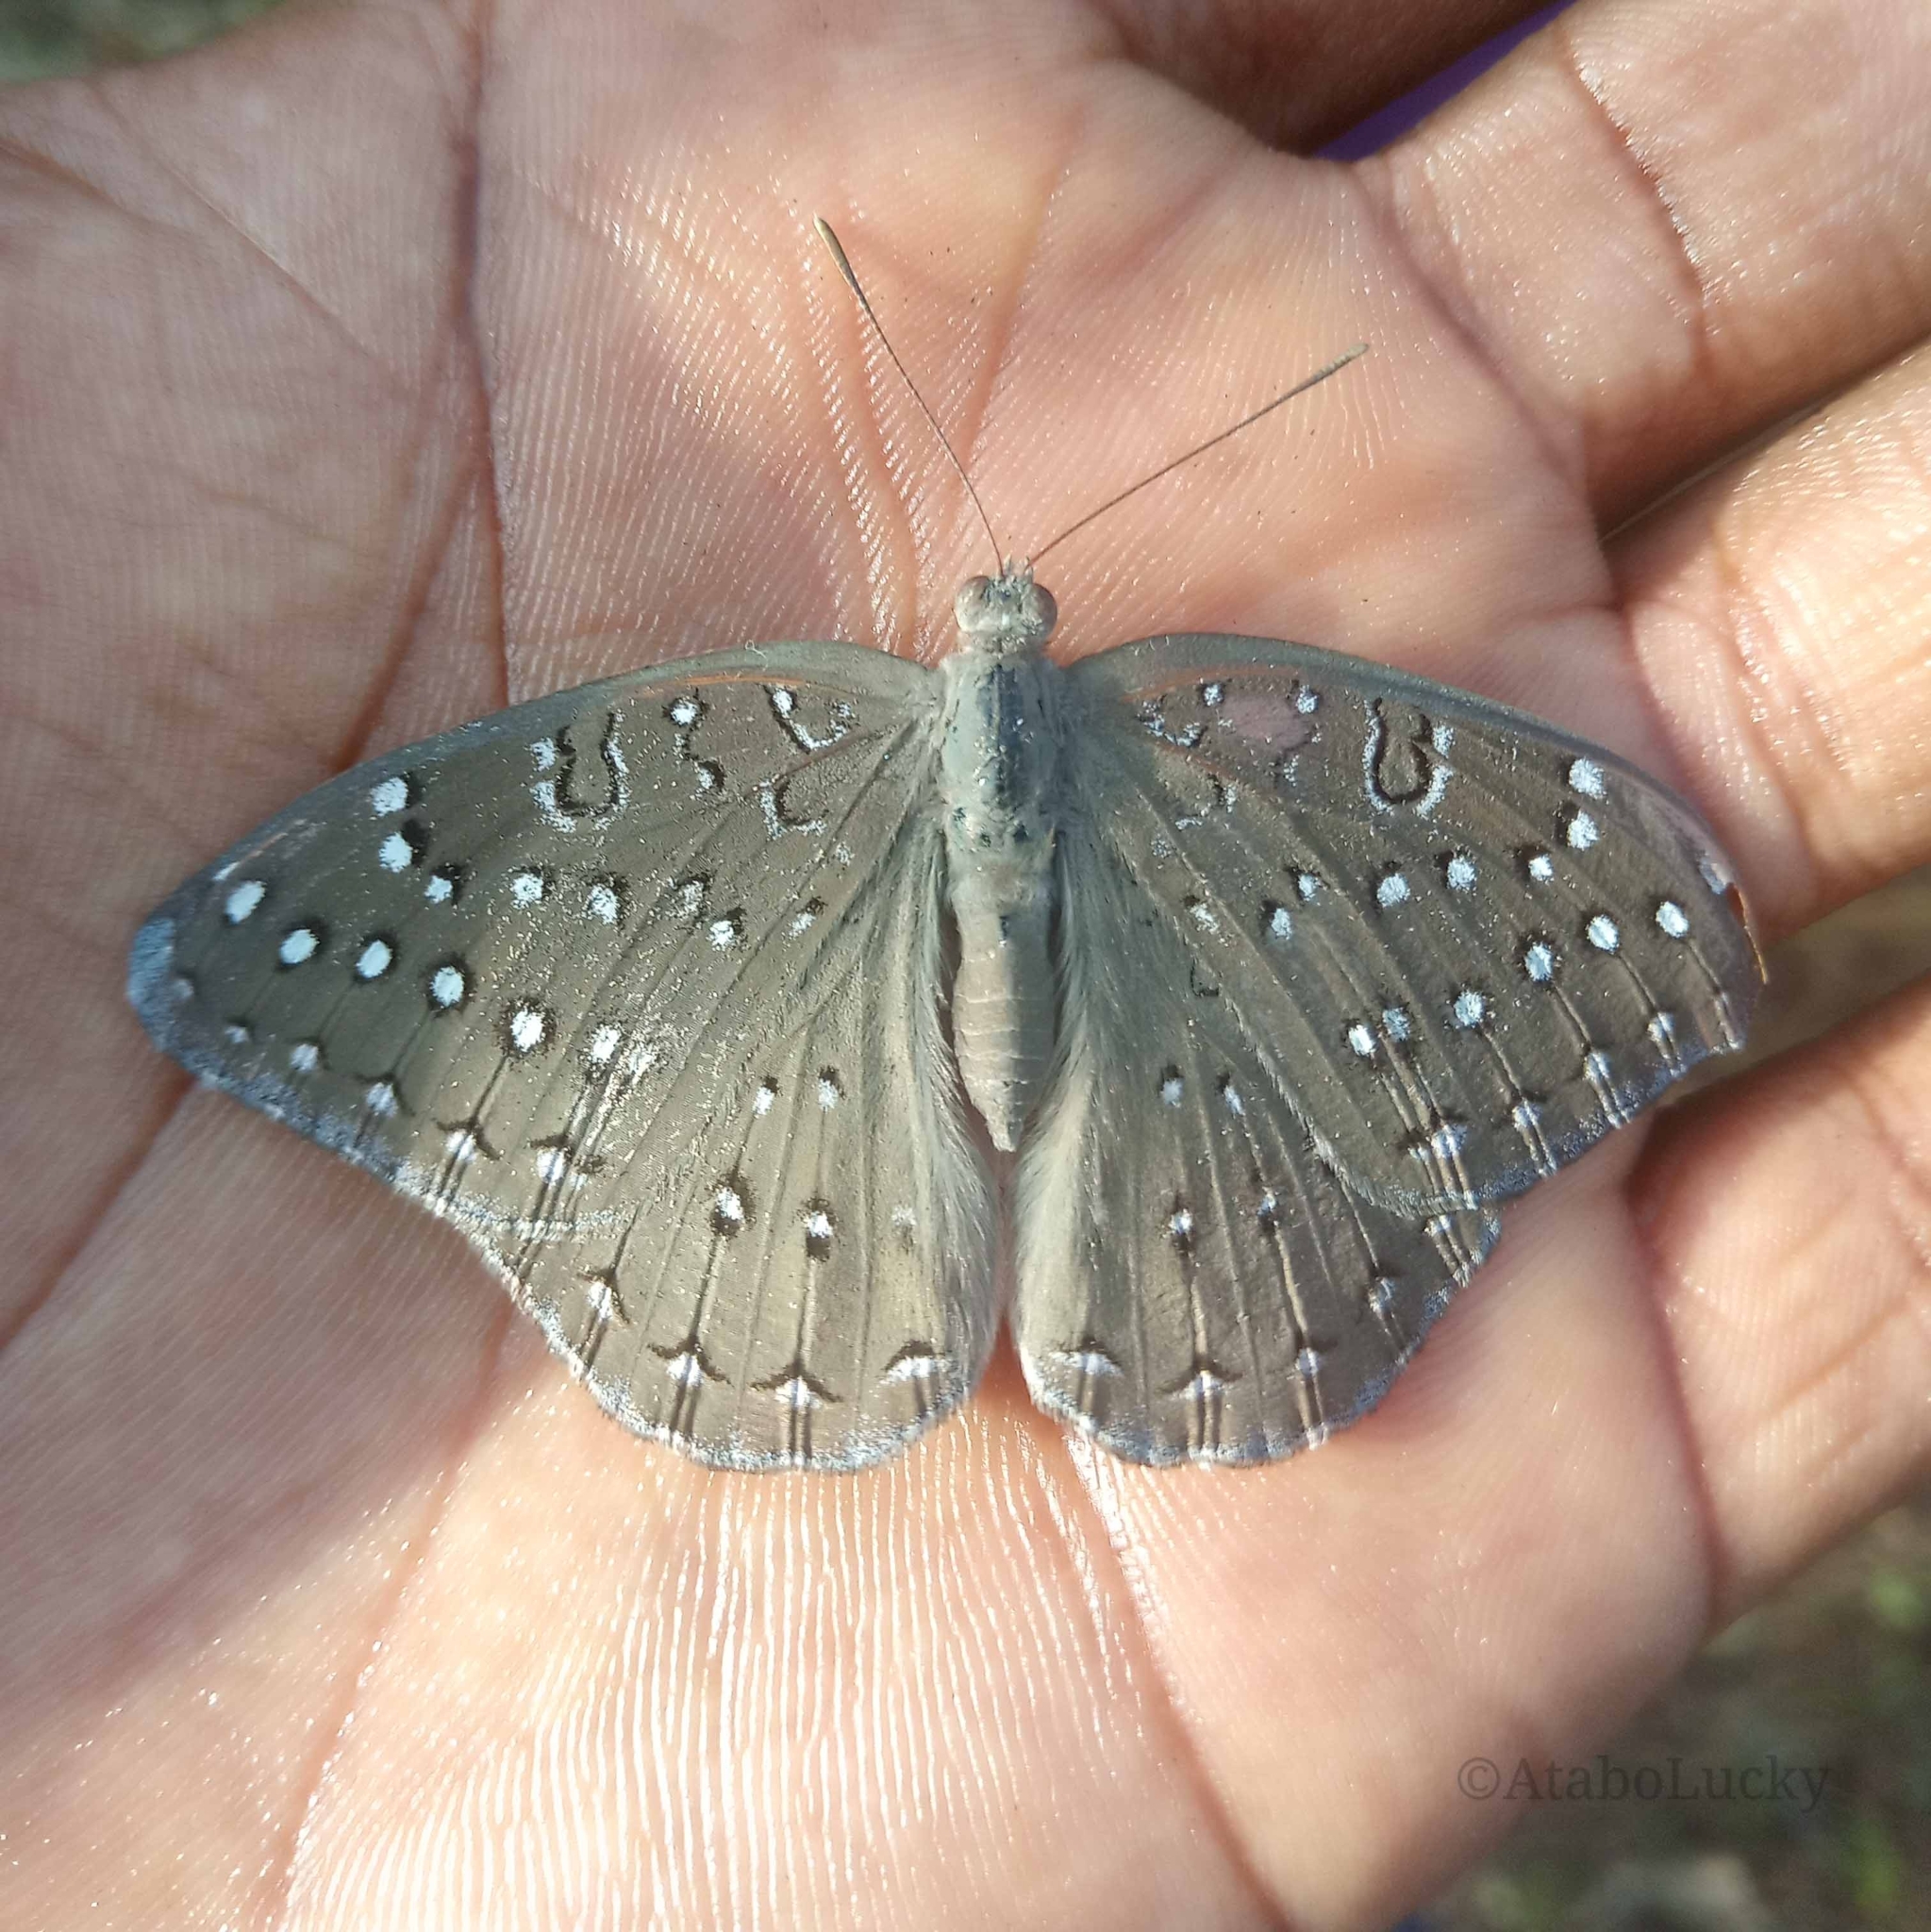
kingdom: Animalia
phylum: Arthropoda
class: Insecta
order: Lepidoptera
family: Nymphalidae
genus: Hamanumida
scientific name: Hamanumida daedalus
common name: Guinea-fowl butterfly
